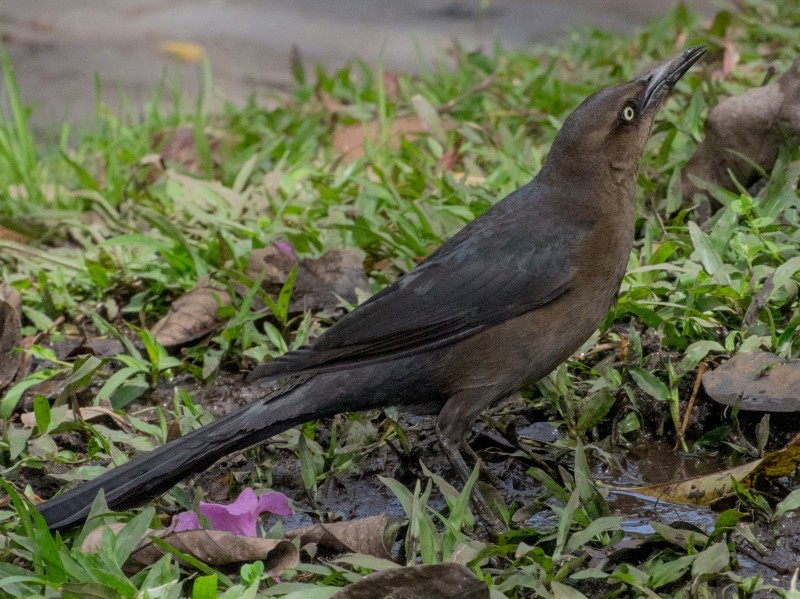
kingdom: Animalia
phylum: Chordata
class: Aves
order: Passeriformes
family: Icteridae
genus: Quiscalus
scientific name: Quiscalus mexicanus
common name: Great-tailed grackle
